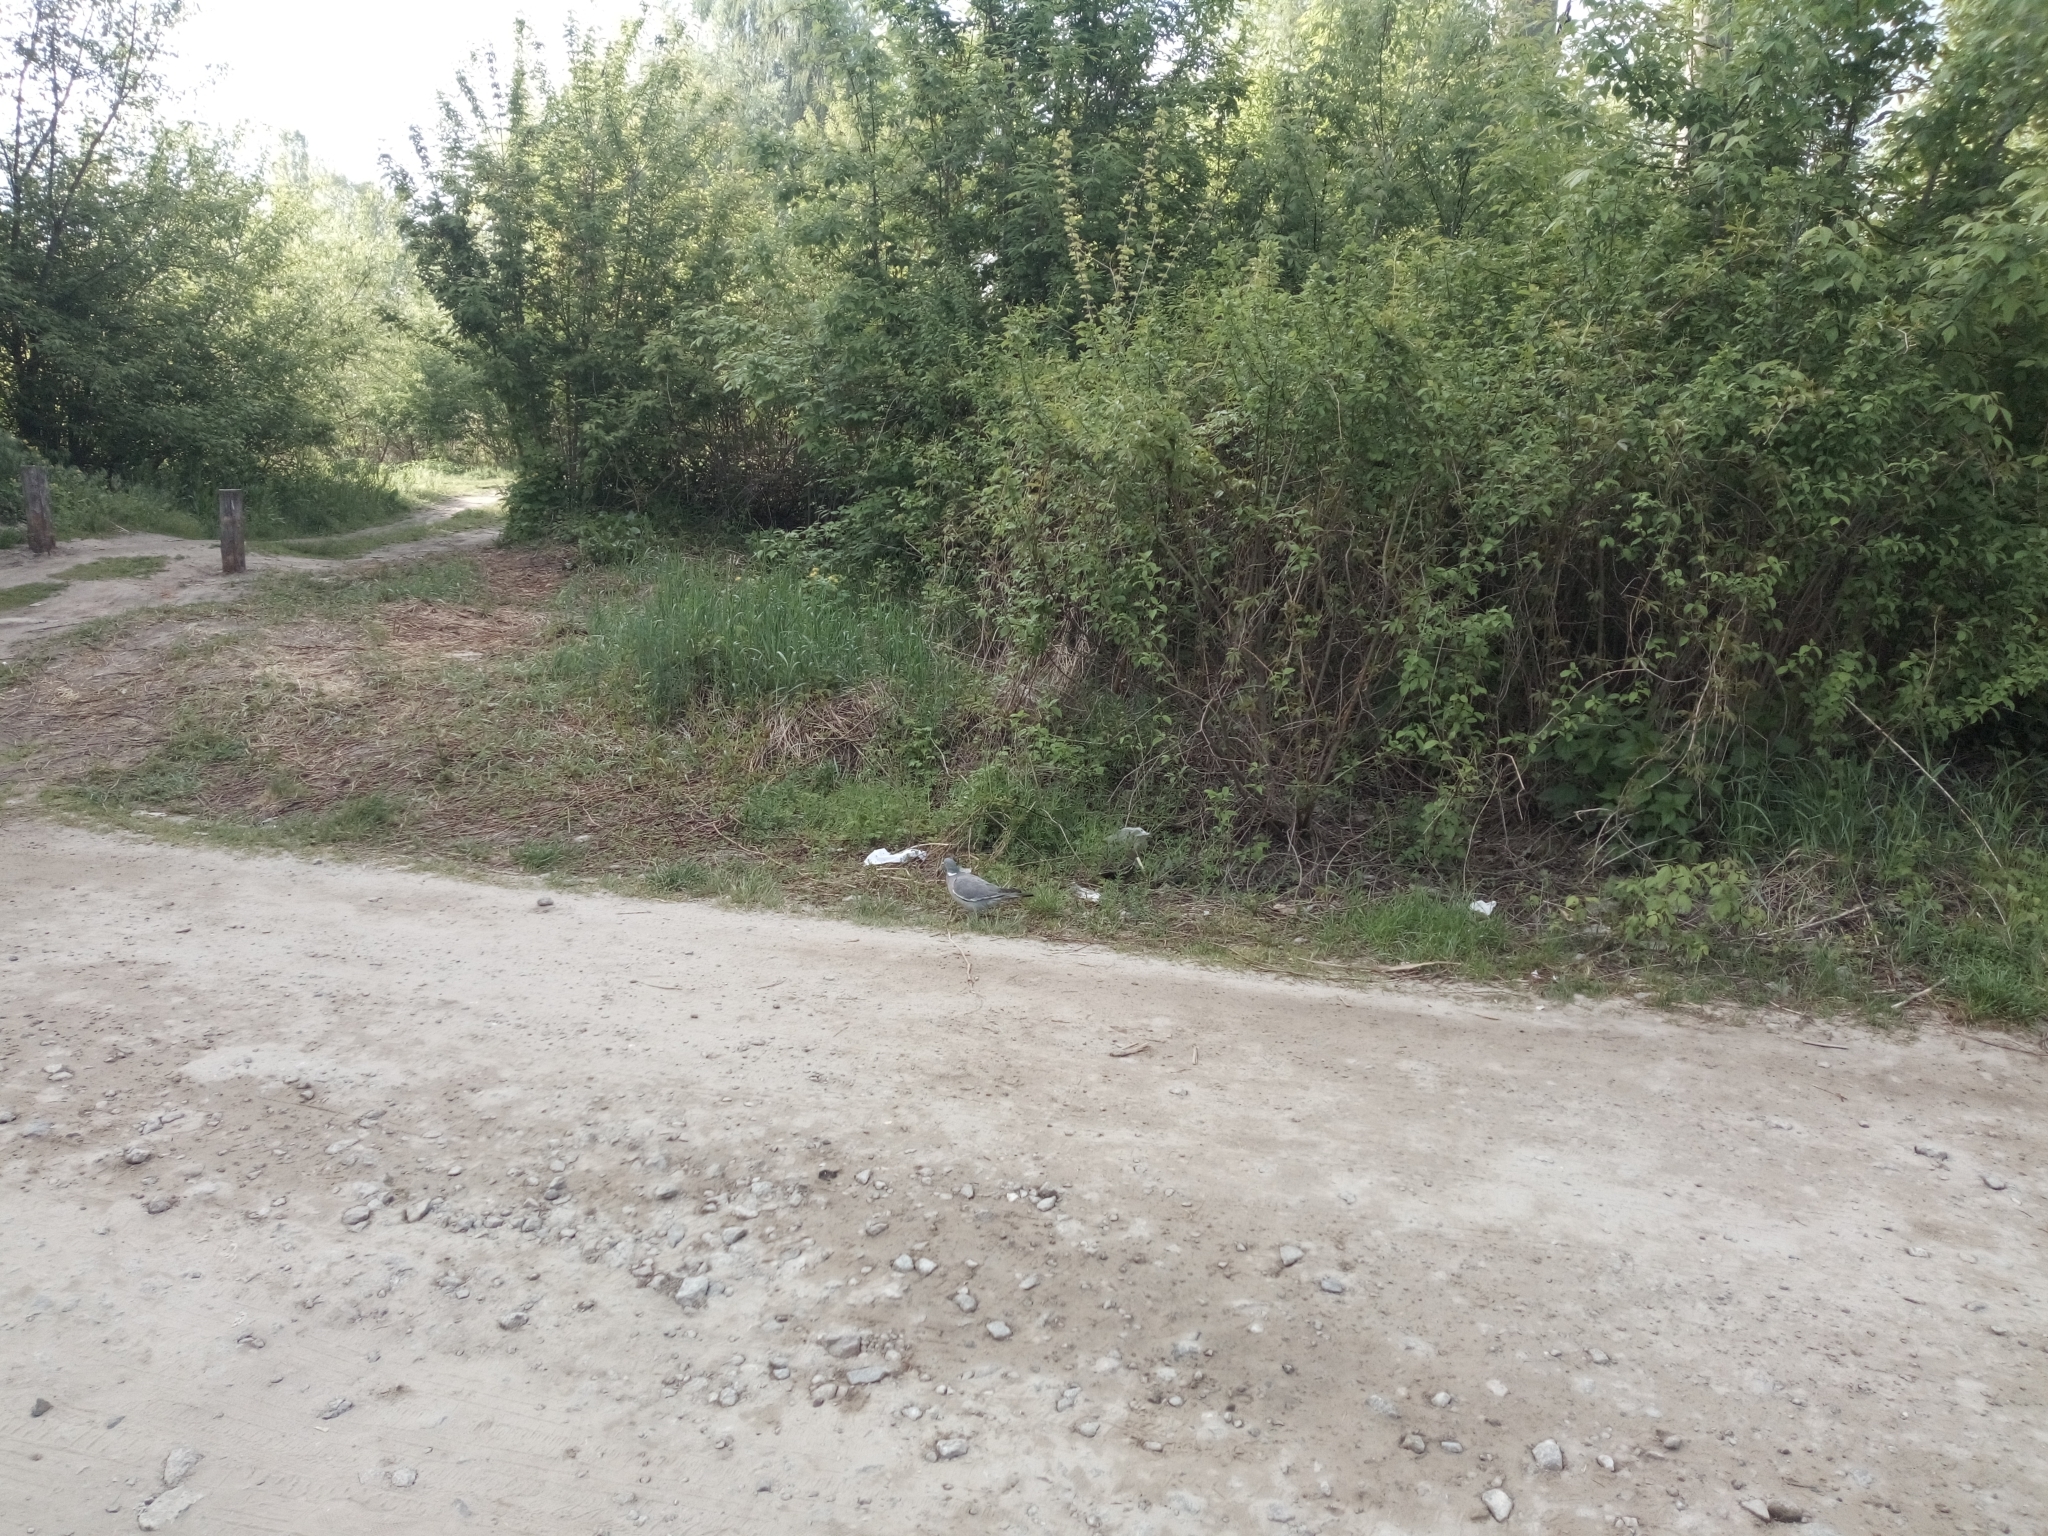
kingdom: Animalia
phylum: Chordata
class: Aves
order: Columbiformes
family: Columbidae
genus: Columba
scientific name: Columba palumbus
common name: Common wood pigeon
